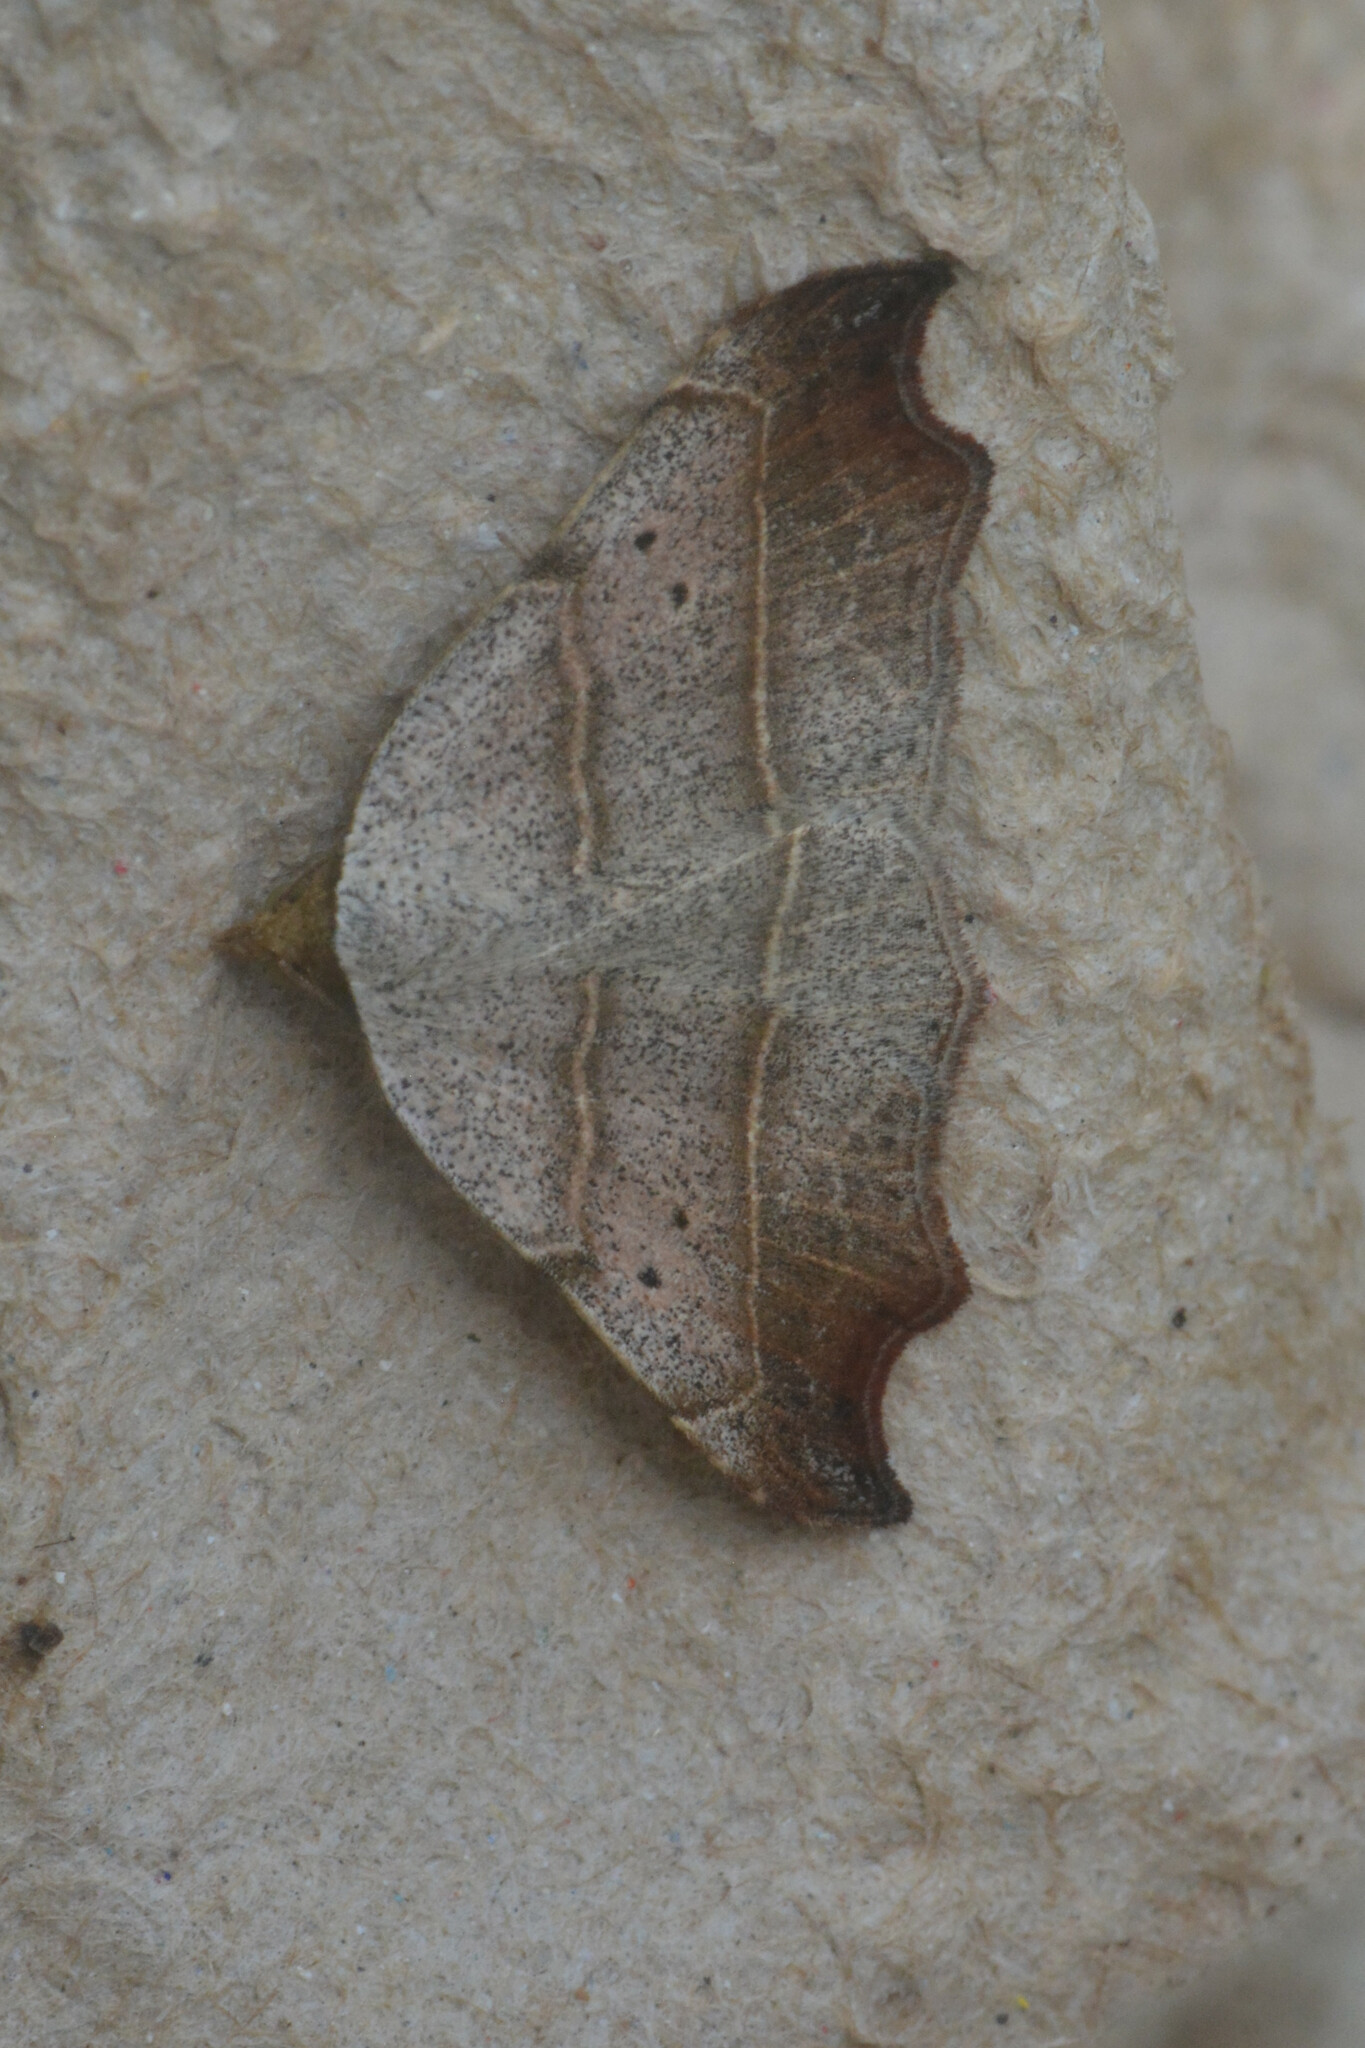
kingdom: Animalia
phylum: Arthropoda
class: Insecta
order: Lepidoptera
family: Erebidae
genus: Laspeyria
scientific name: Laspeyria flexula
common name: Beautiful hook-tip
